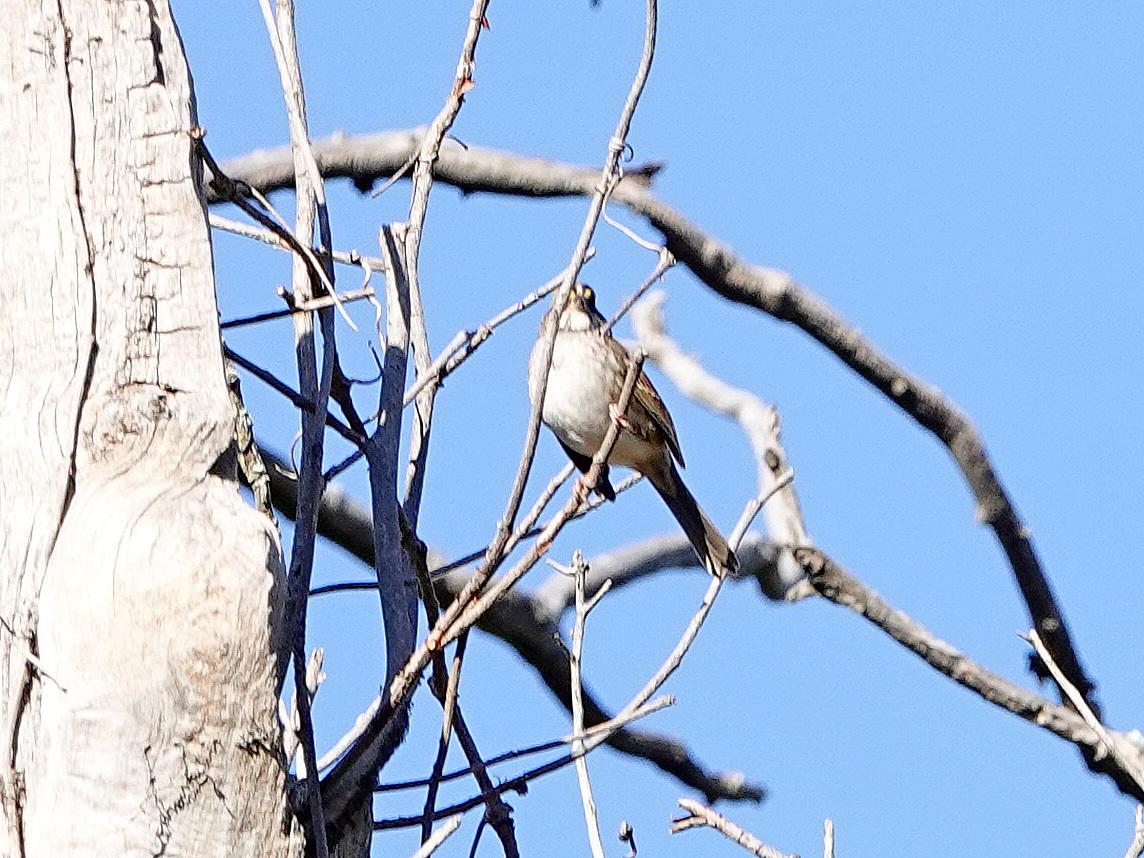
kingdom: Animalia
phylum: Chordata
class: Aves
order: Passeriformes
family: Passerellidae
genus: Zonotrichia
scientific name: Zonotrichia albicollis
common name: White-throated sparrow
